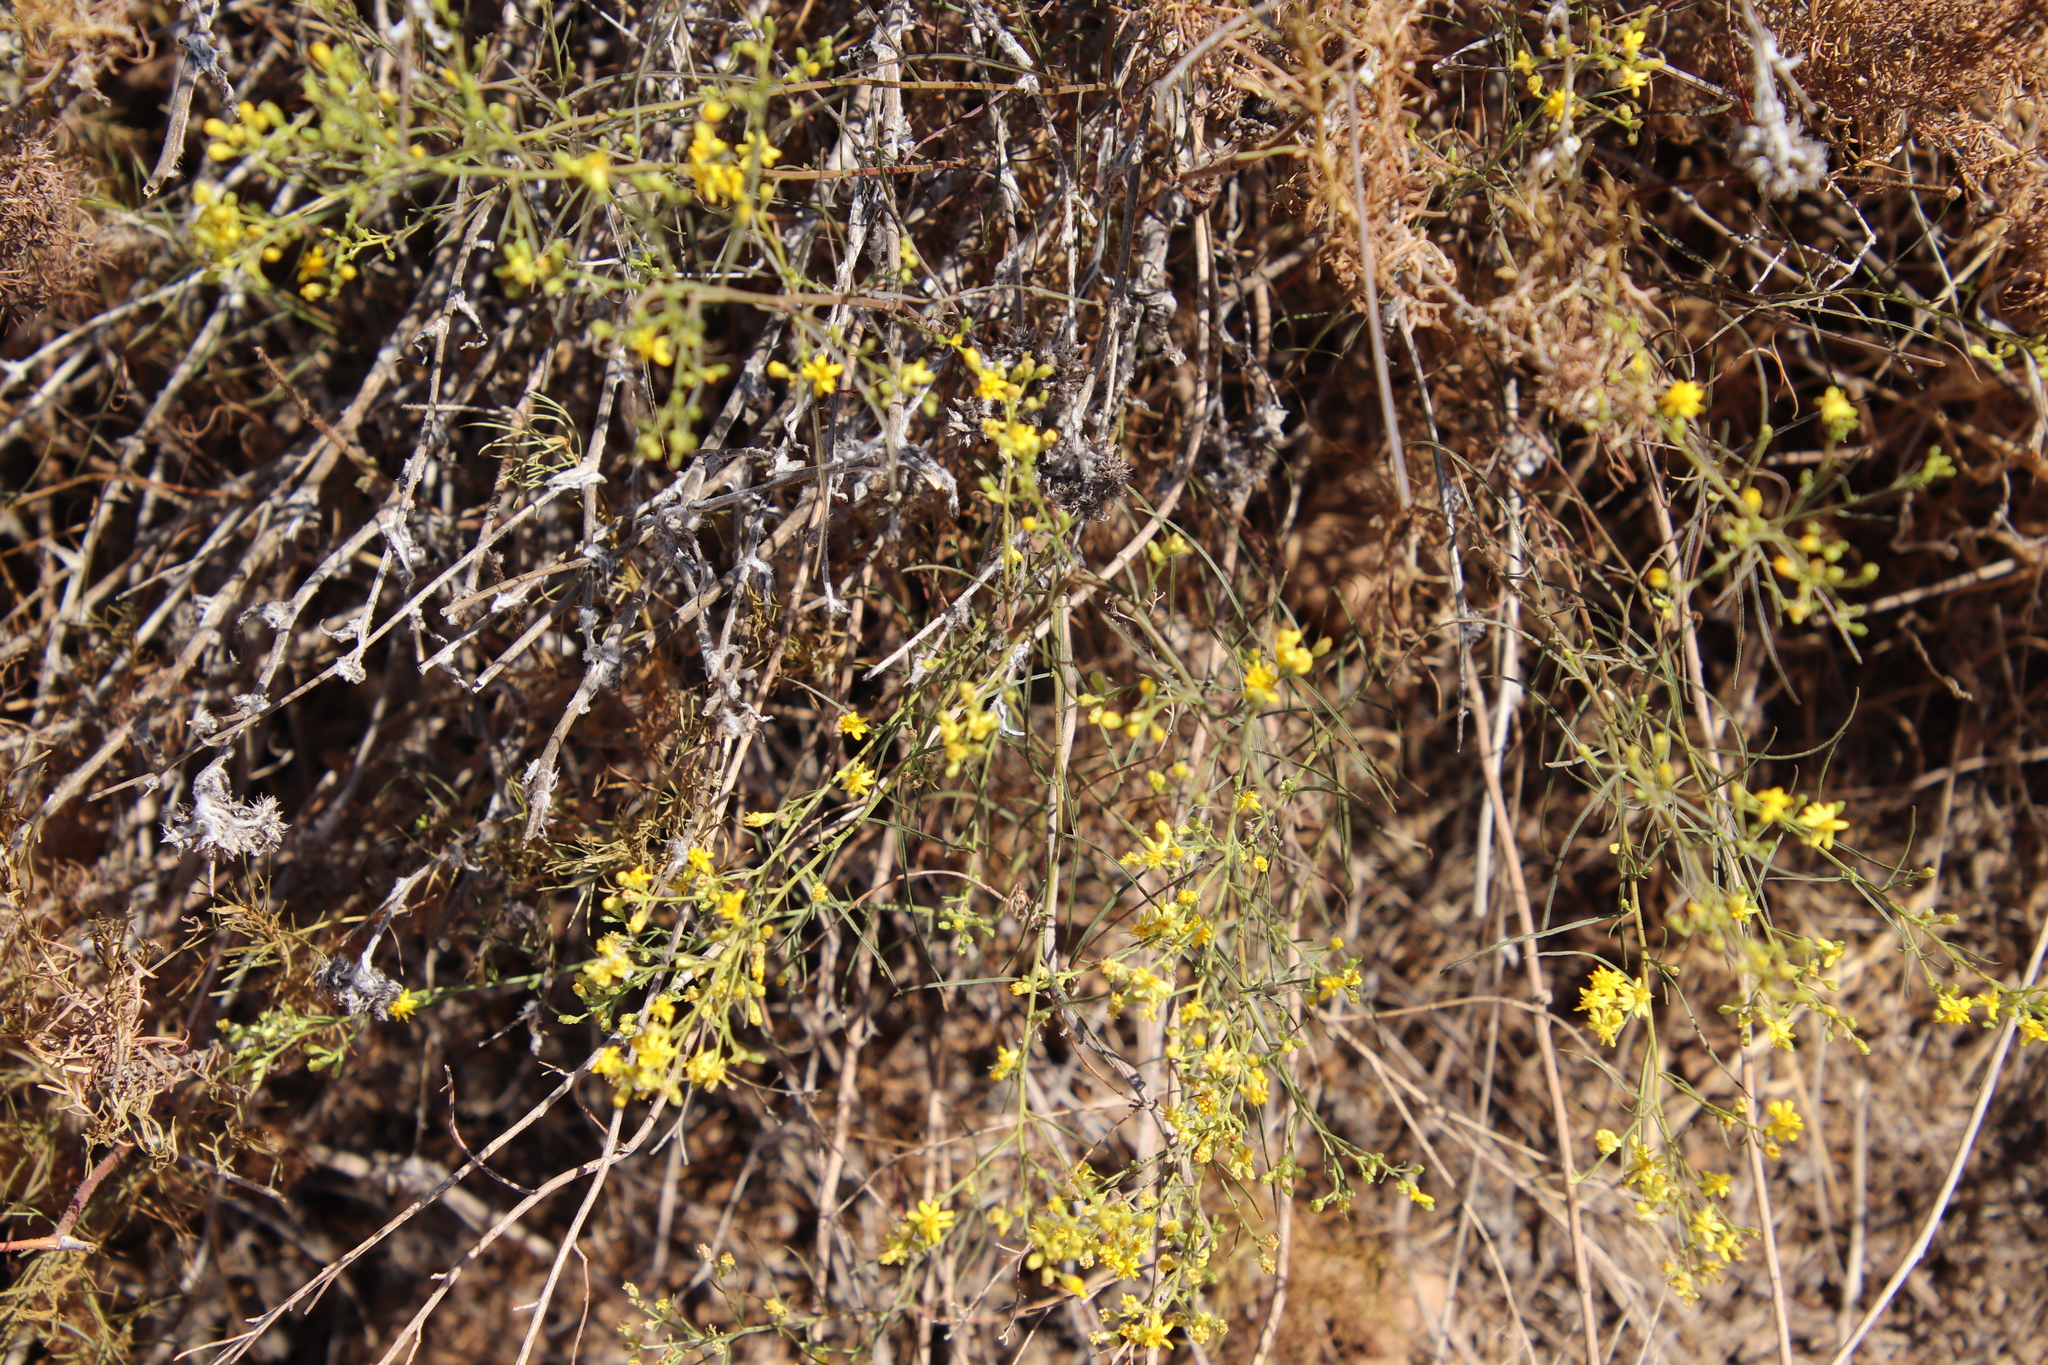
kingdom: Plantae
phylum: Tracheophyta
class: Magnoliopsida
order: Asterales
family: Asteraceae
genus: Gutierrezia
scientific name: Gutierrezia sarothrae
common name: Broom snakeweed
